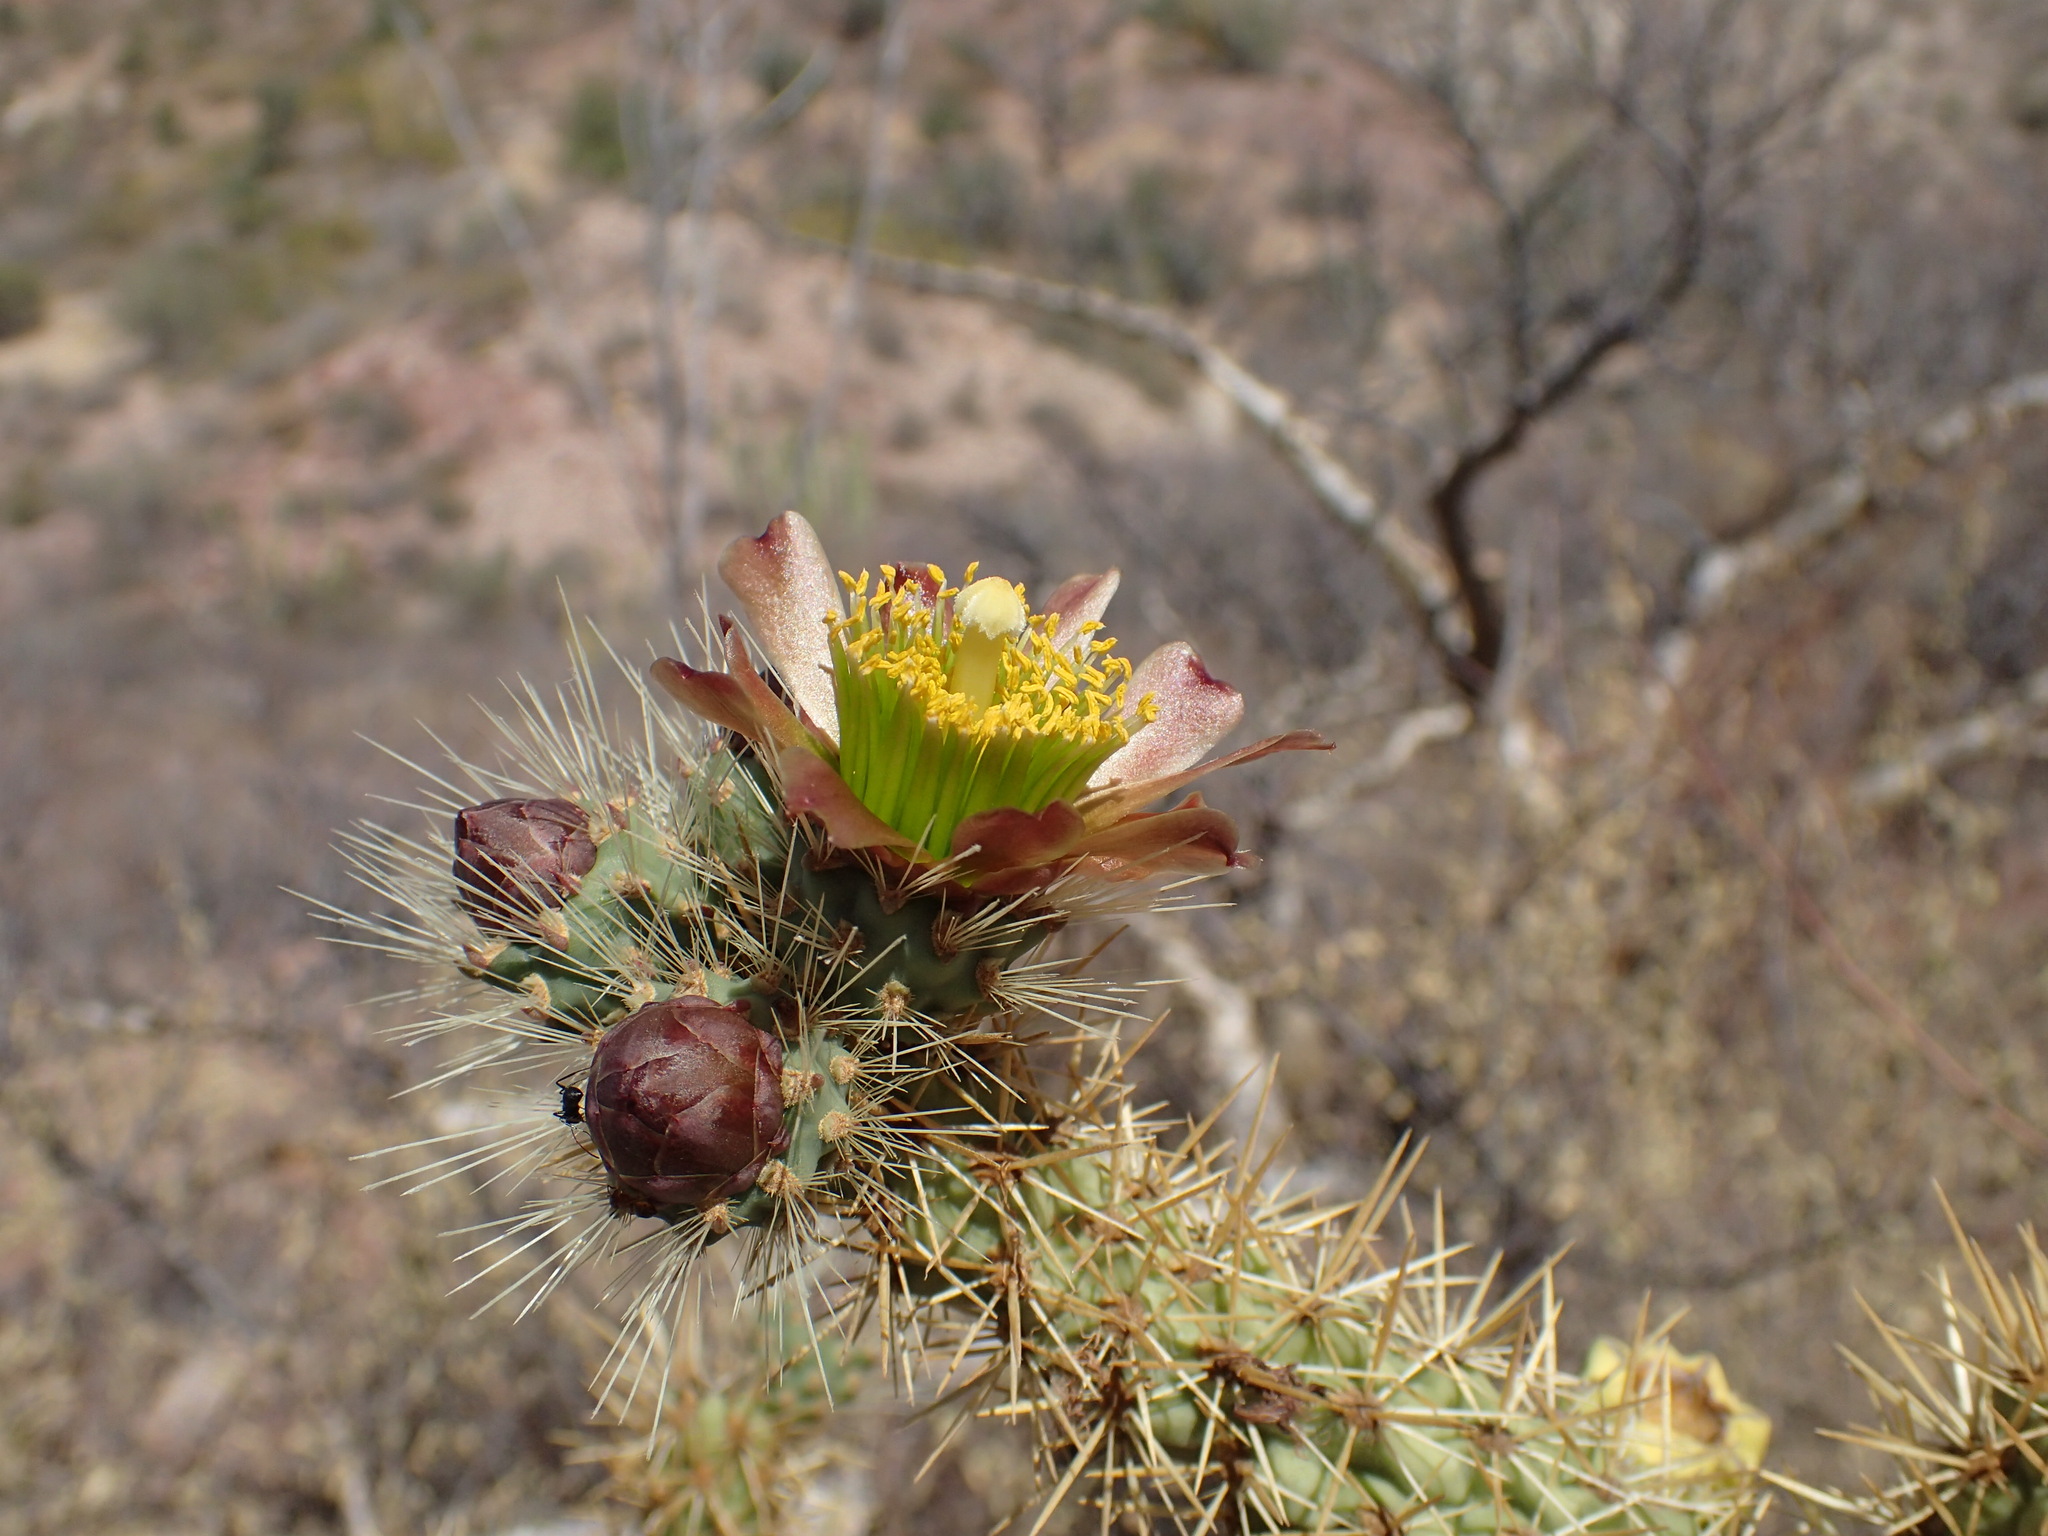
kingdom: Plantae
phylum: Tracheophyta
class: Magnoliopsida
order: Caryophyllales
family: Cactaceae
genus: Cylindropuntia
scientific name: Cylindropuntia alcahes
